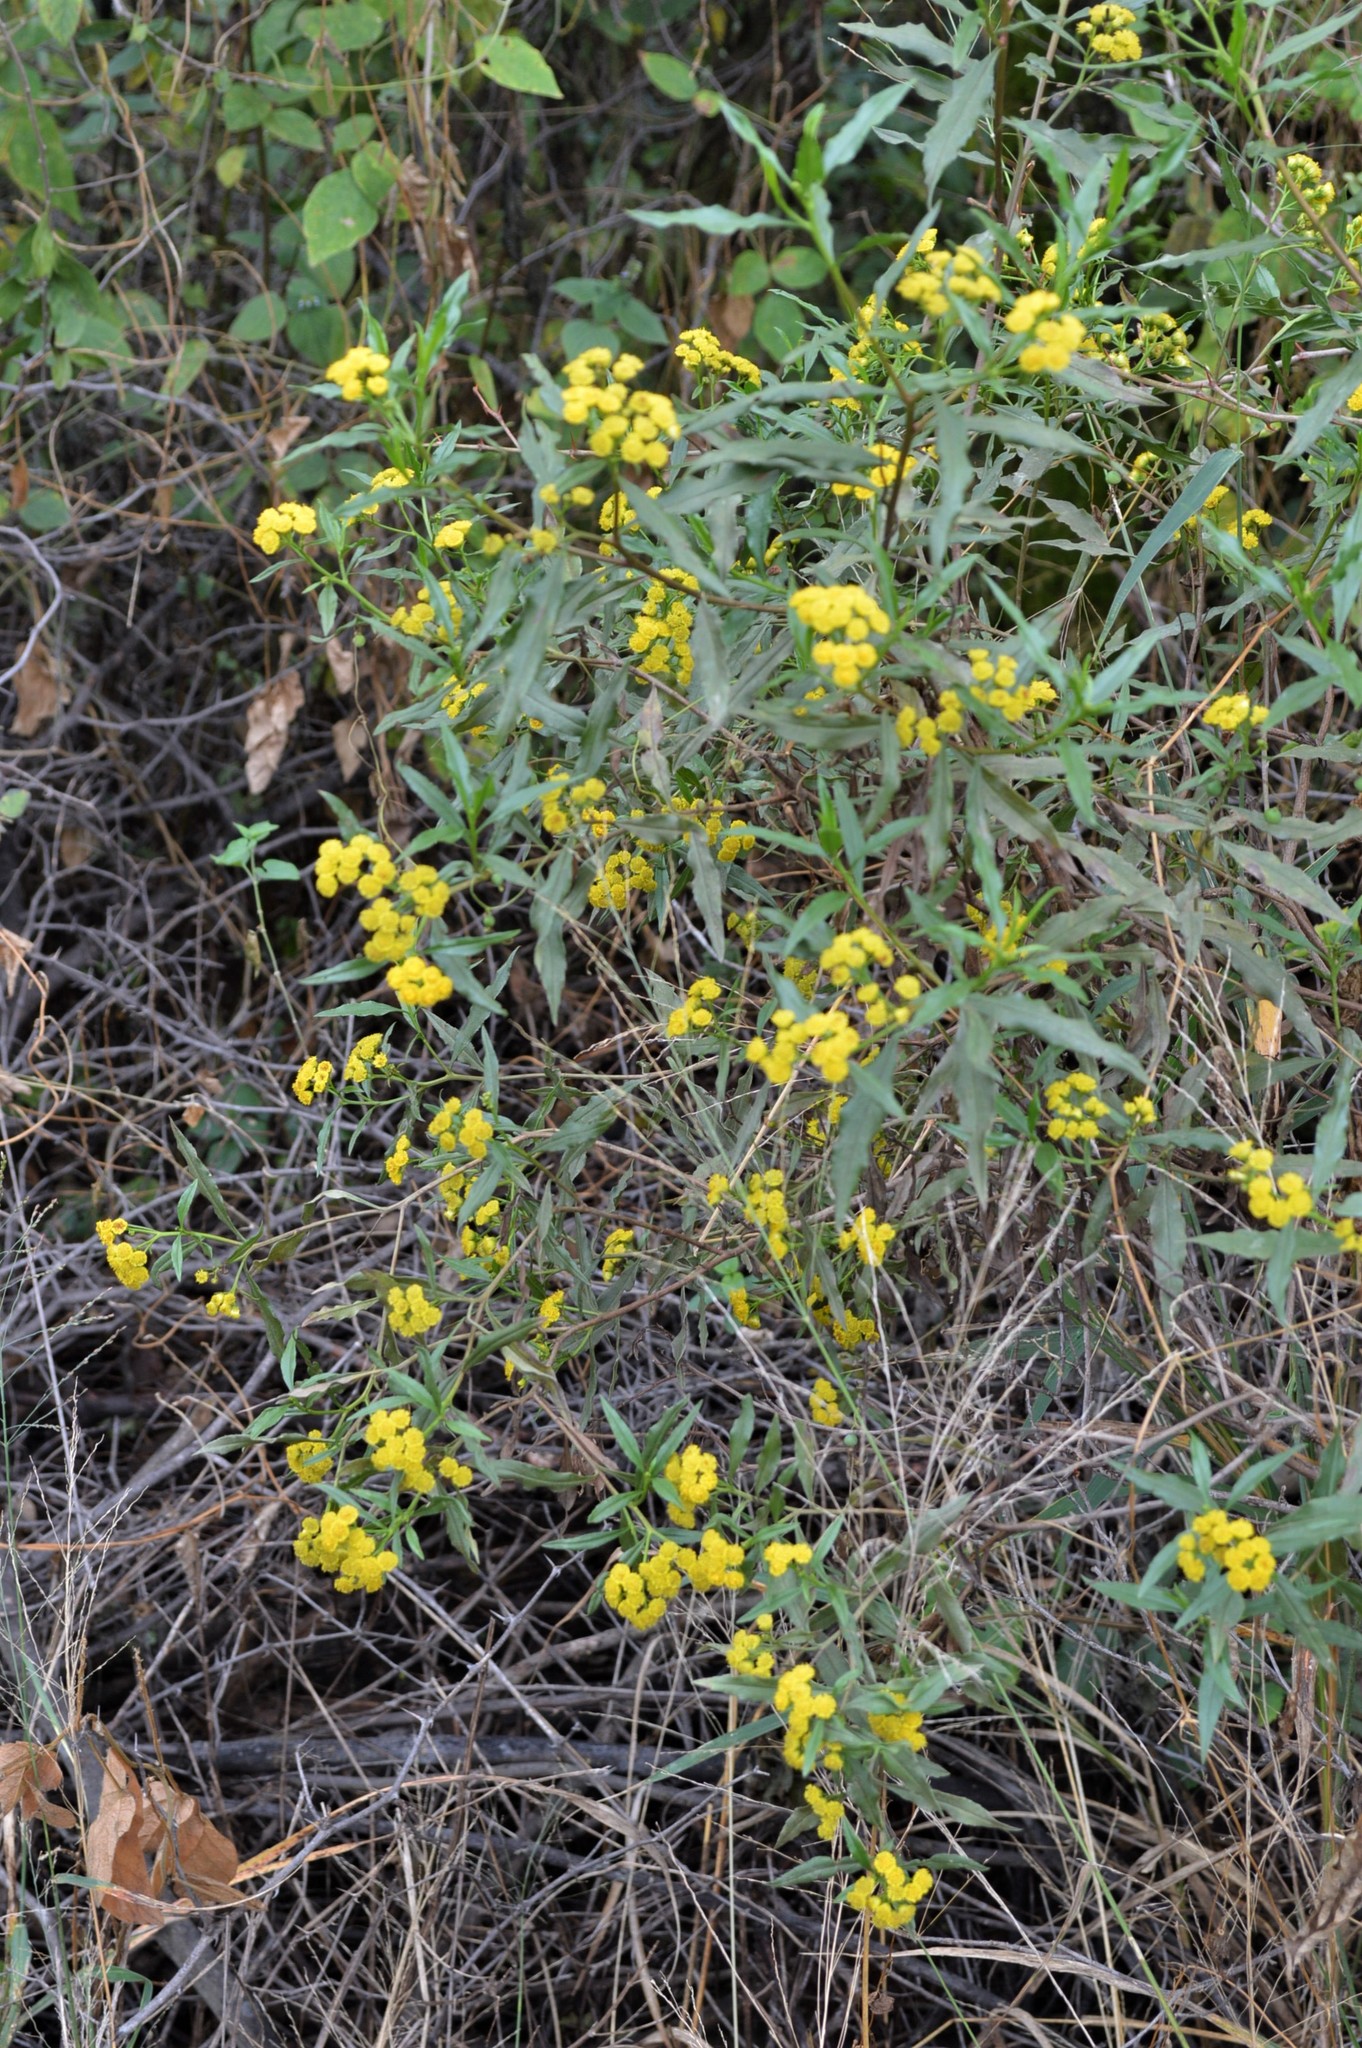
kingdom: Plantae
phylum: Tracheophyta
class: Magnoliopsida
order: Asterales
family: Asteraceae
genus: Psiadia
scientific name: Psiadia punctulata
